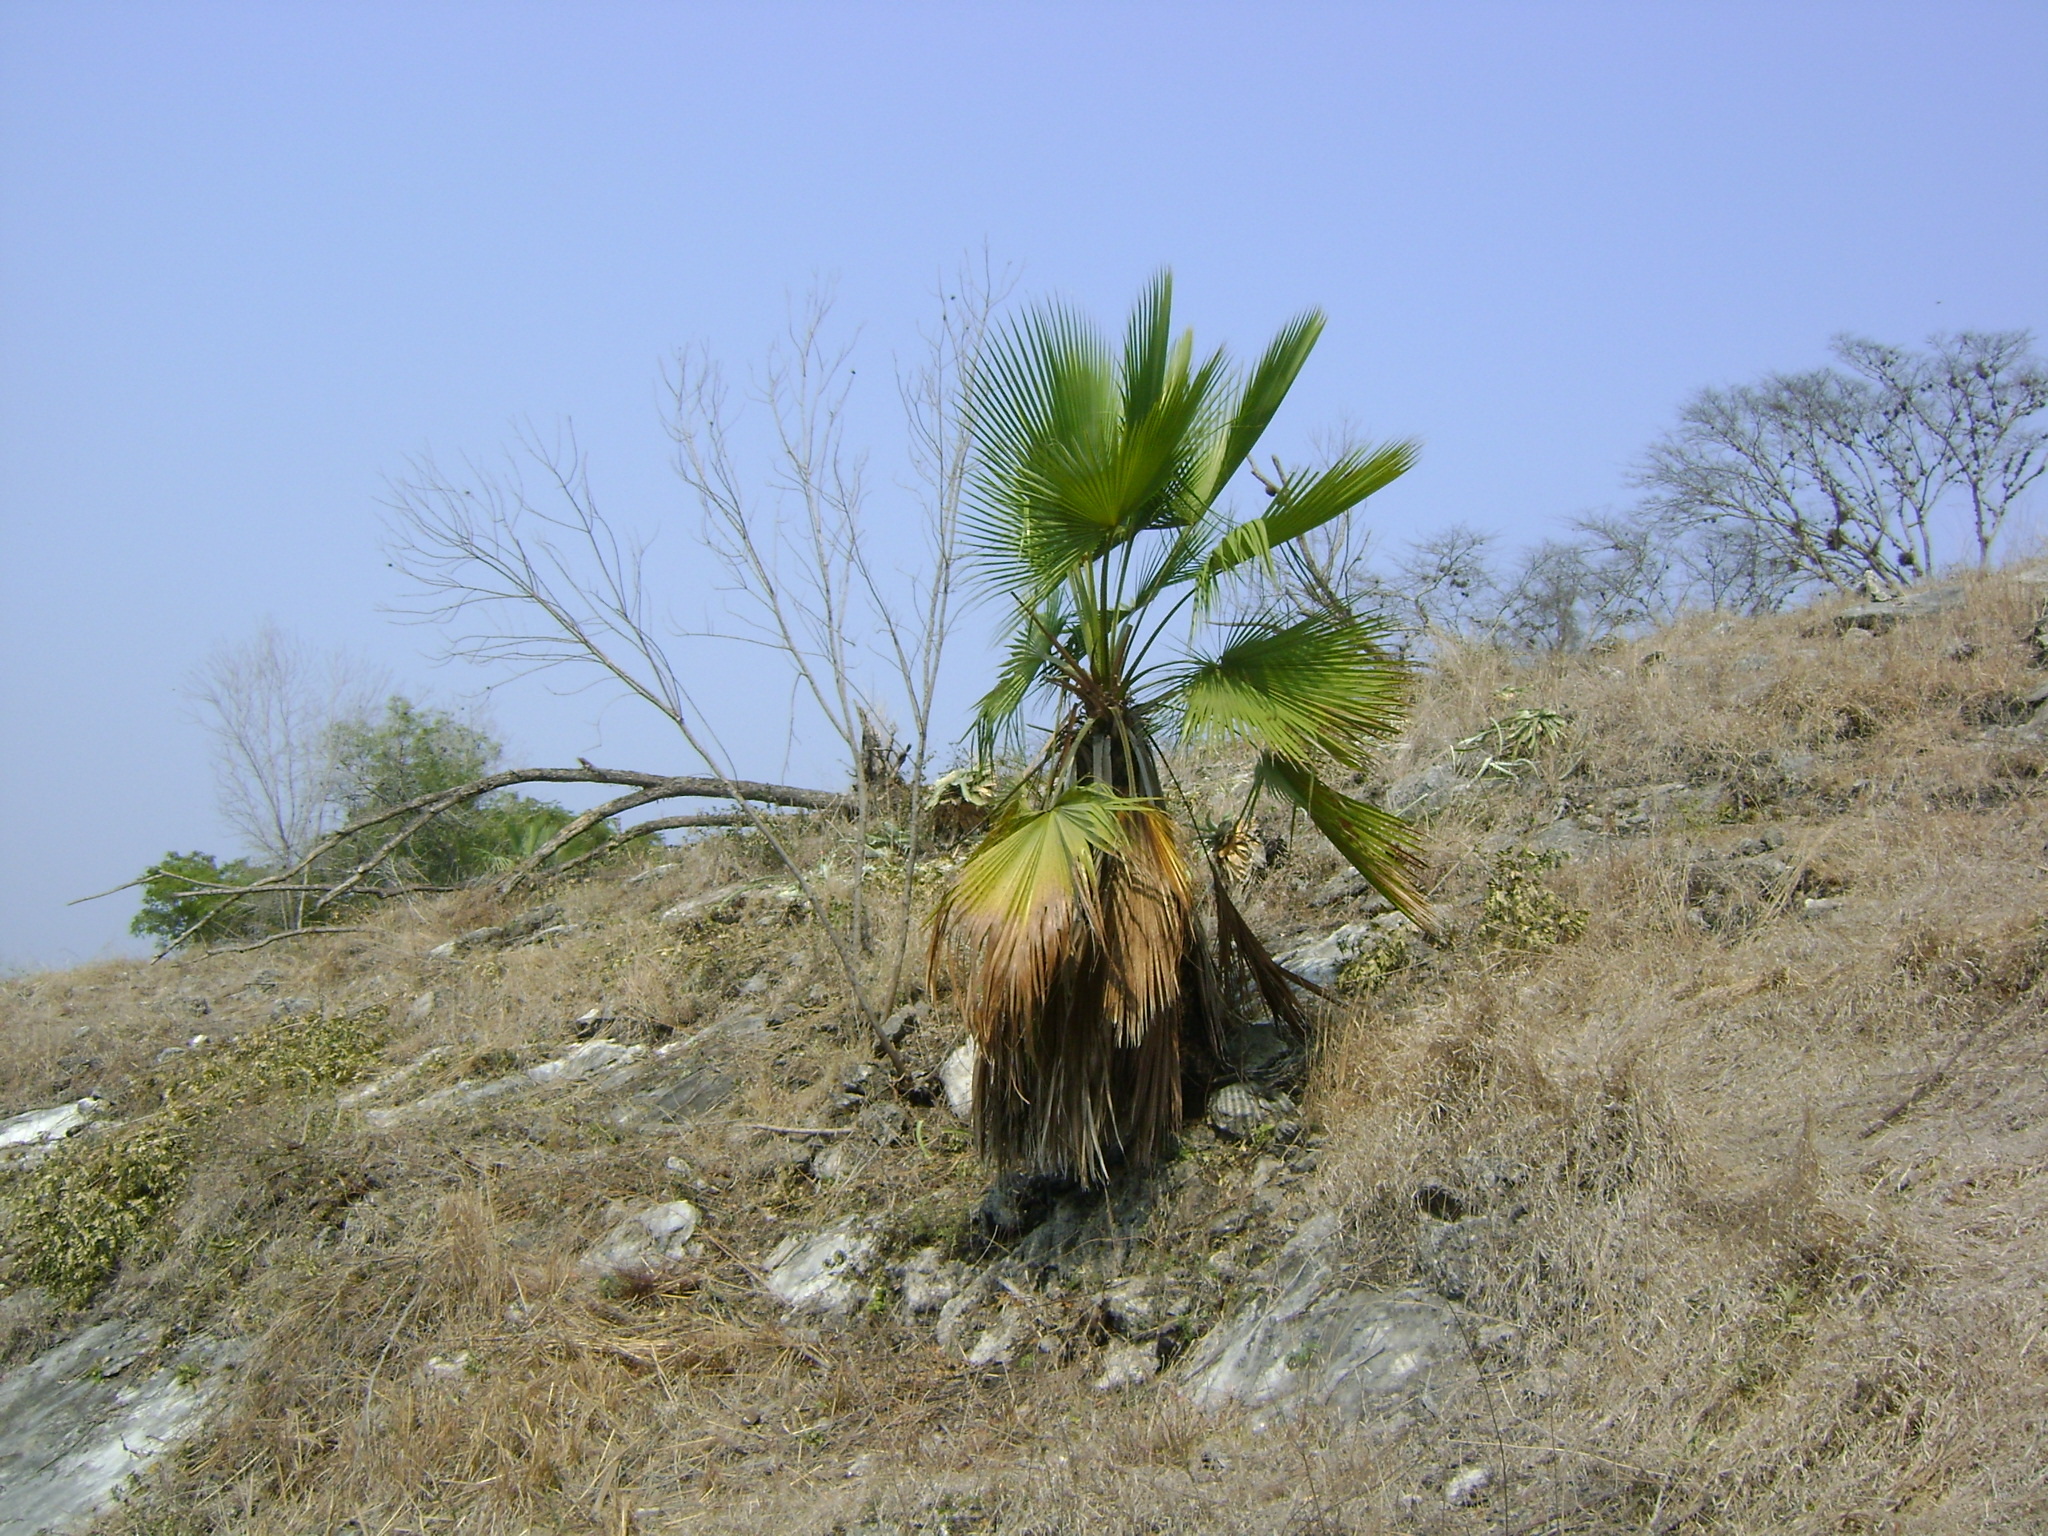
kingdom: Plantae
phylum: Tracheophyta
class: Liliopsida
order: Arecales
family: Arecaceae
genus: Brahea
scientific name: Brahea dulcis
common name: Apak palm
